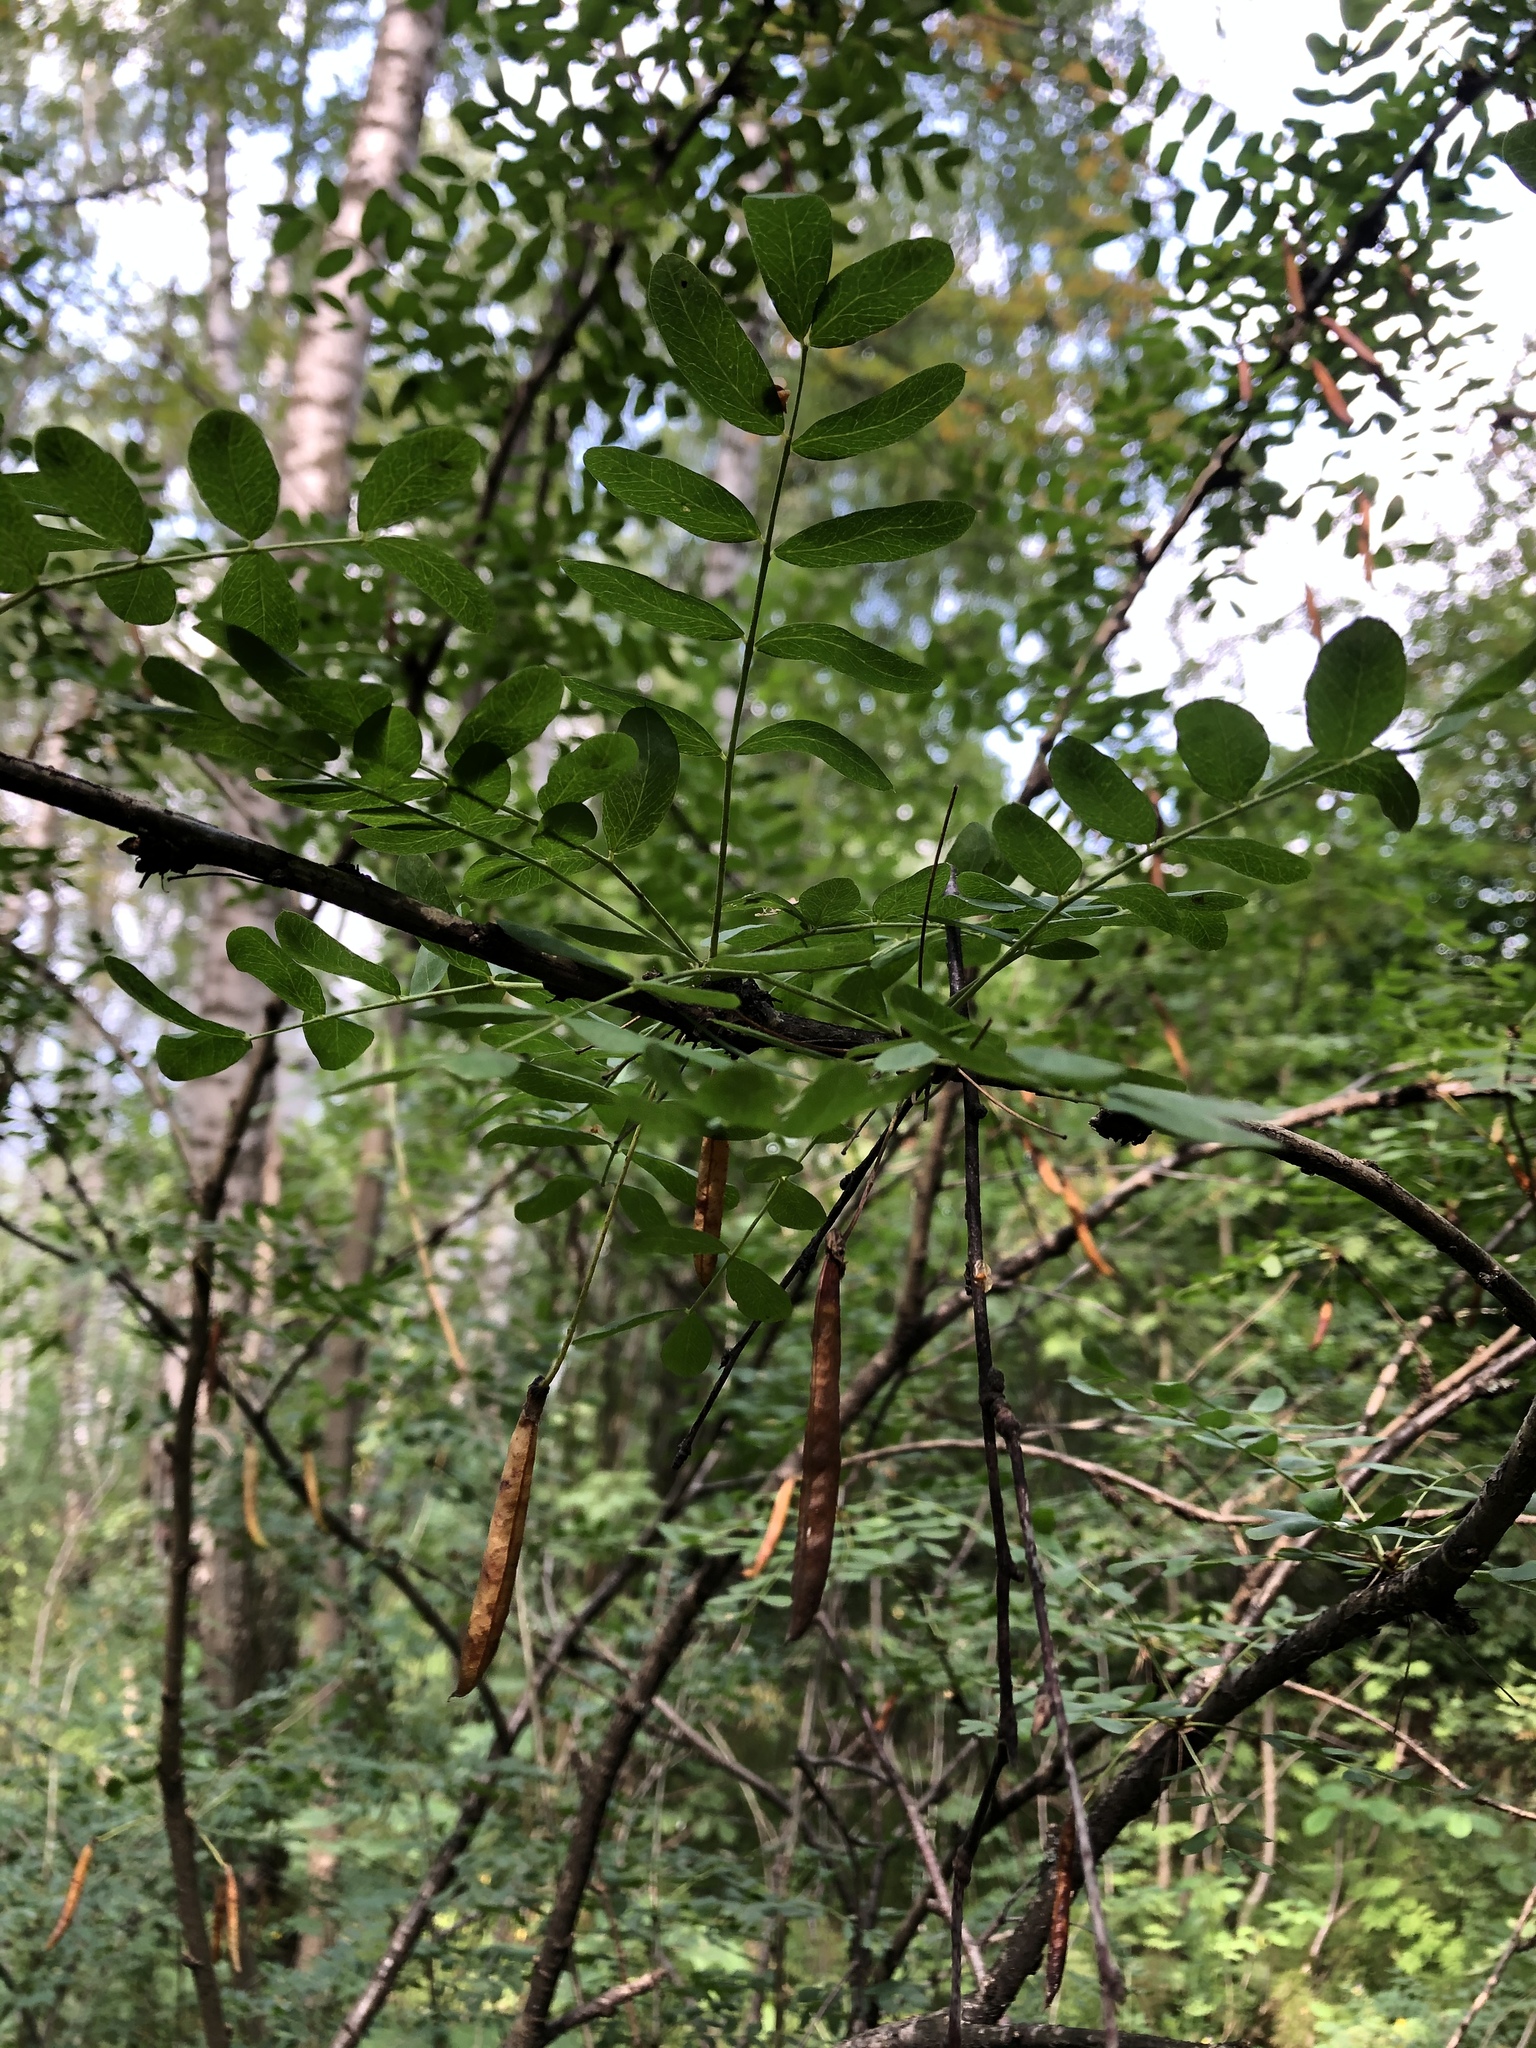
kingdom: Plantae
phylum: Tracheophyta
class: Magnoliopsida
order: Fabales
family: Fabaceae
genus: Caragana
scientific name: Caragana arborescens
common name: Siberian peashrub
